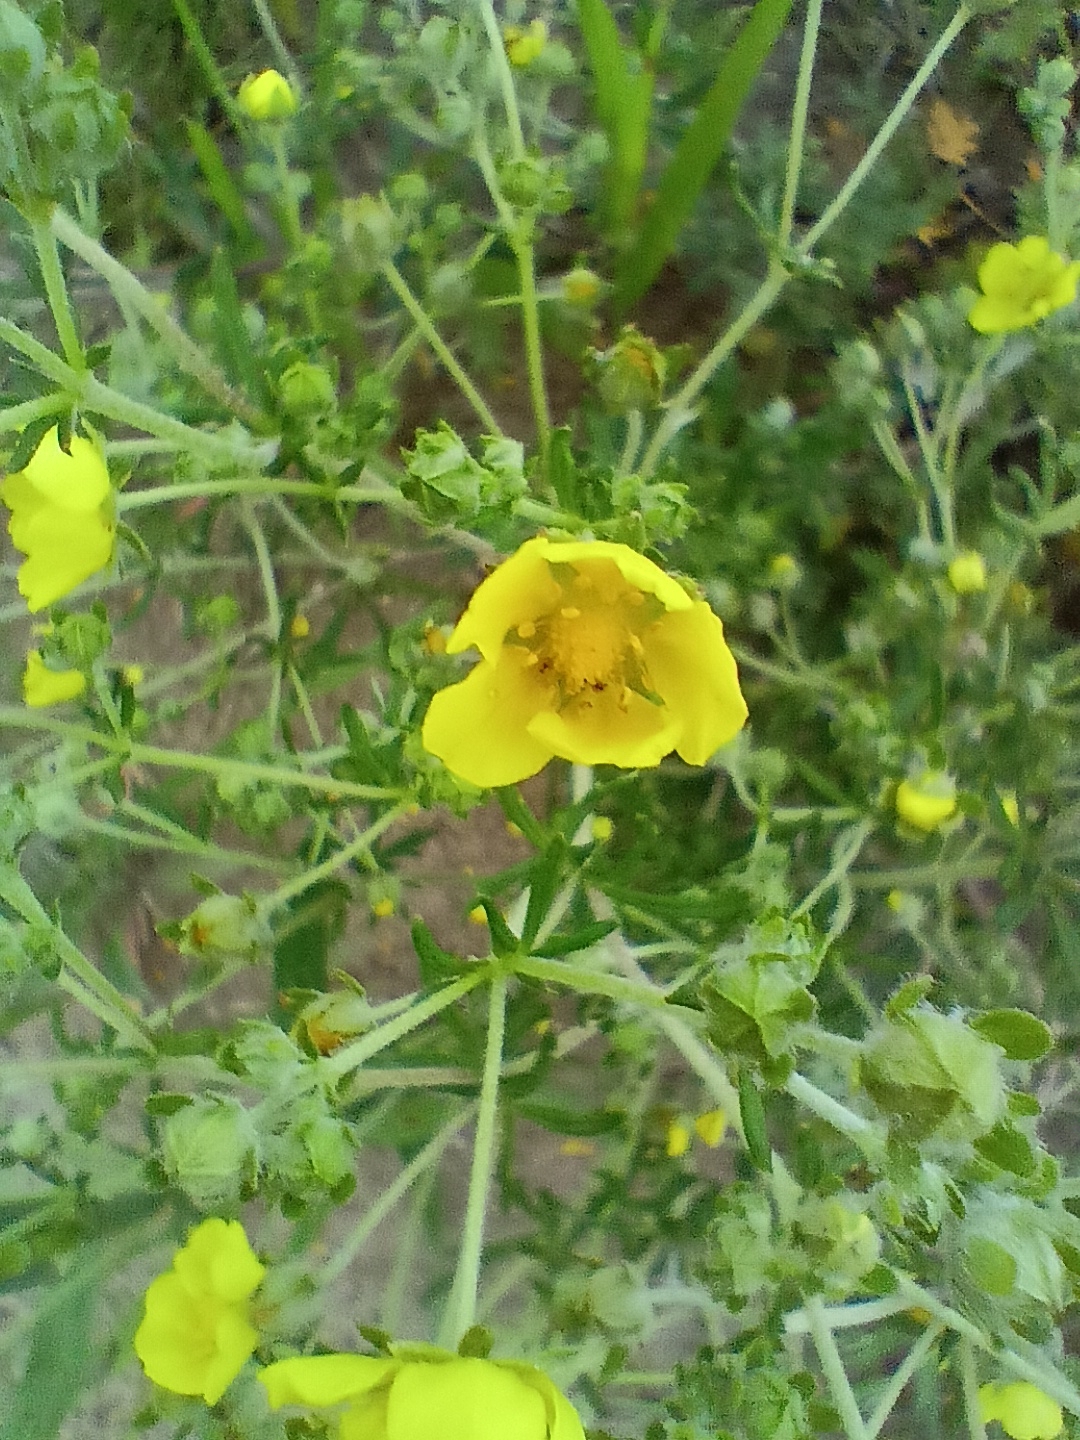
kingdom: Plantae
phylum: Tracheophyta
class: Magnoliopsida
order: Rosales
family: Rosaceae
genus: Potentilla
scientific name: Potentilla argentea
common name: Hoary cinquefoil
